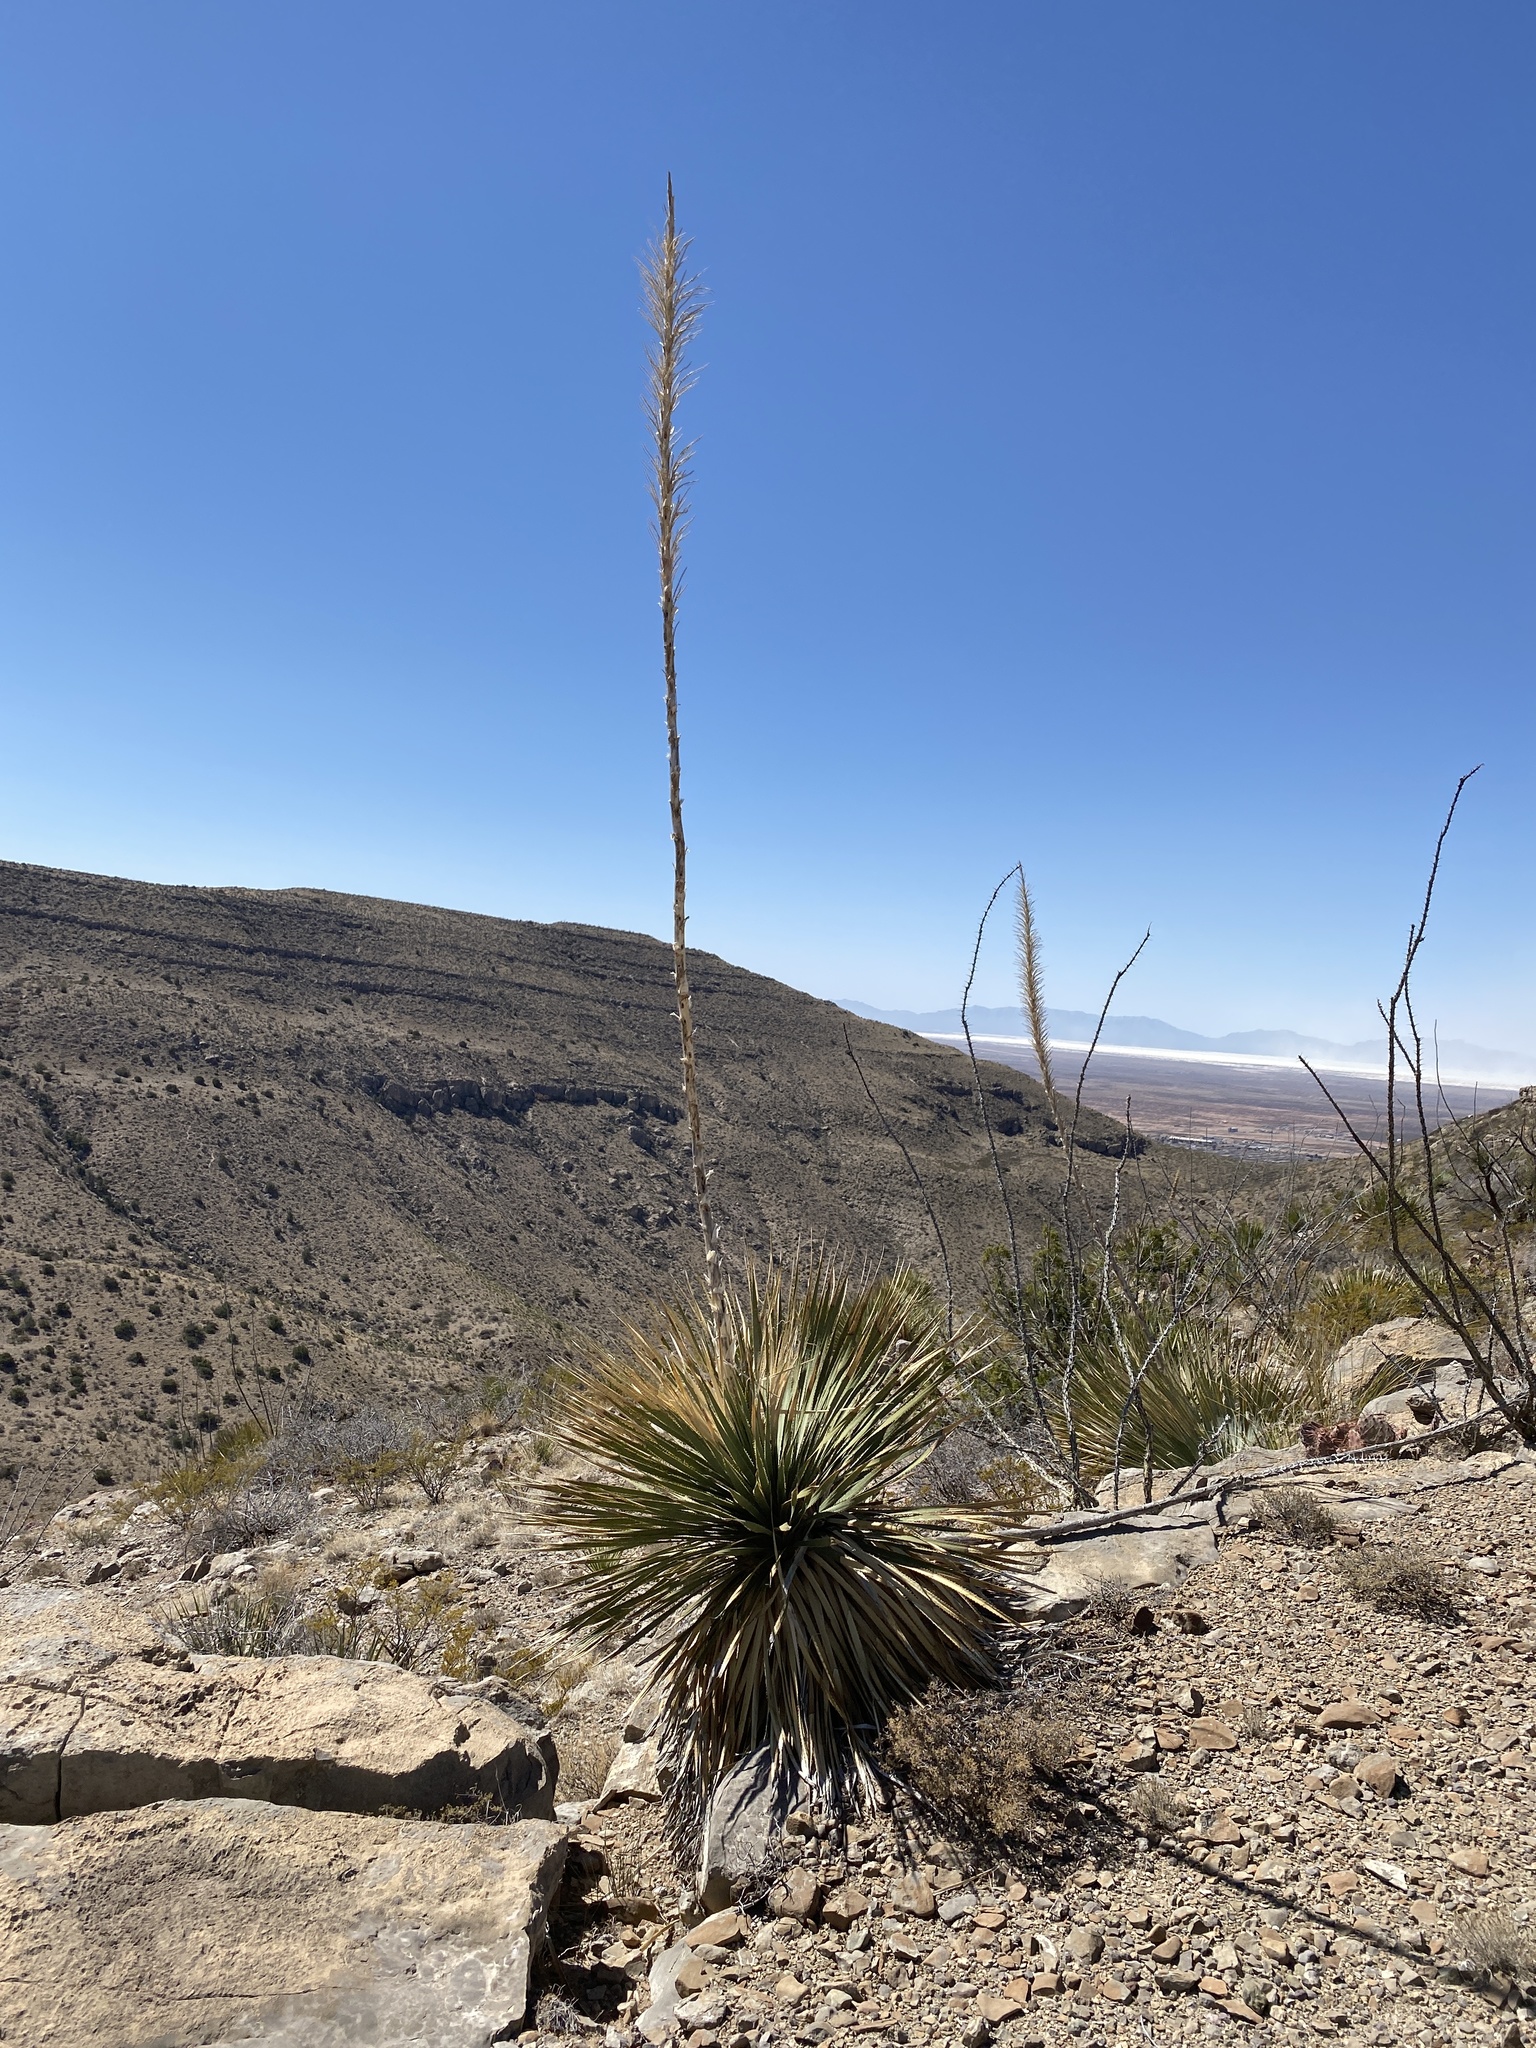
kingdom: Plantae
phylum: Tracheophyta
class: Liliopsida
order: Asparagales
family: Asparagaceae
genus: Dasylirion
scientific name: Dasylirion wheeleri
